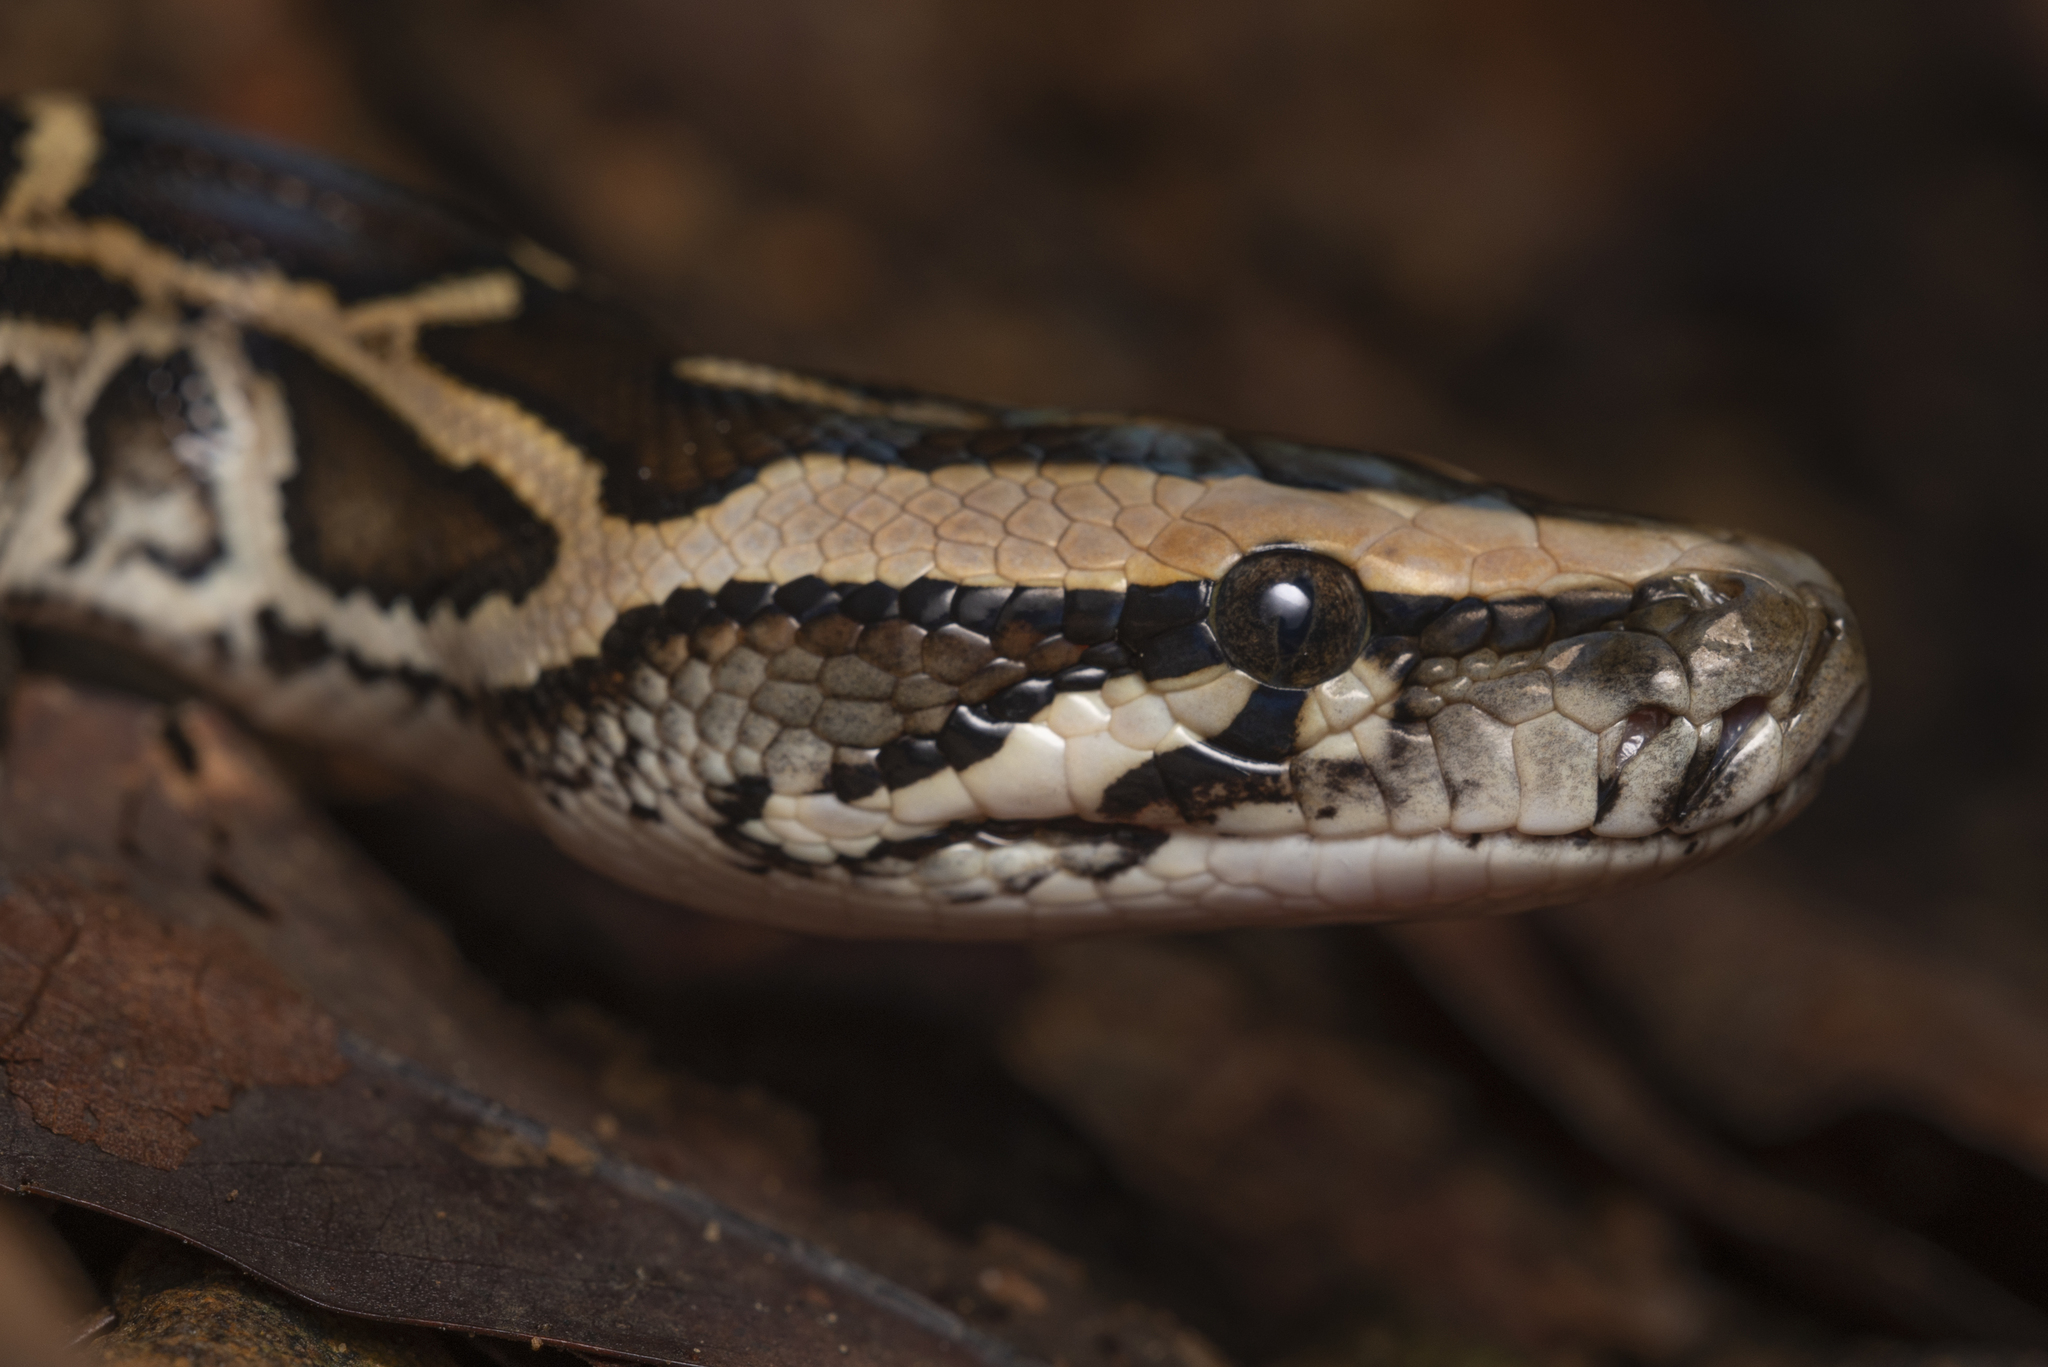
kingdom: Animalia
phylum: Chordata
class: Squamata
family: Pythonidae
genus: Python
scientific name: Python bivittatus
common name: Burmese python
